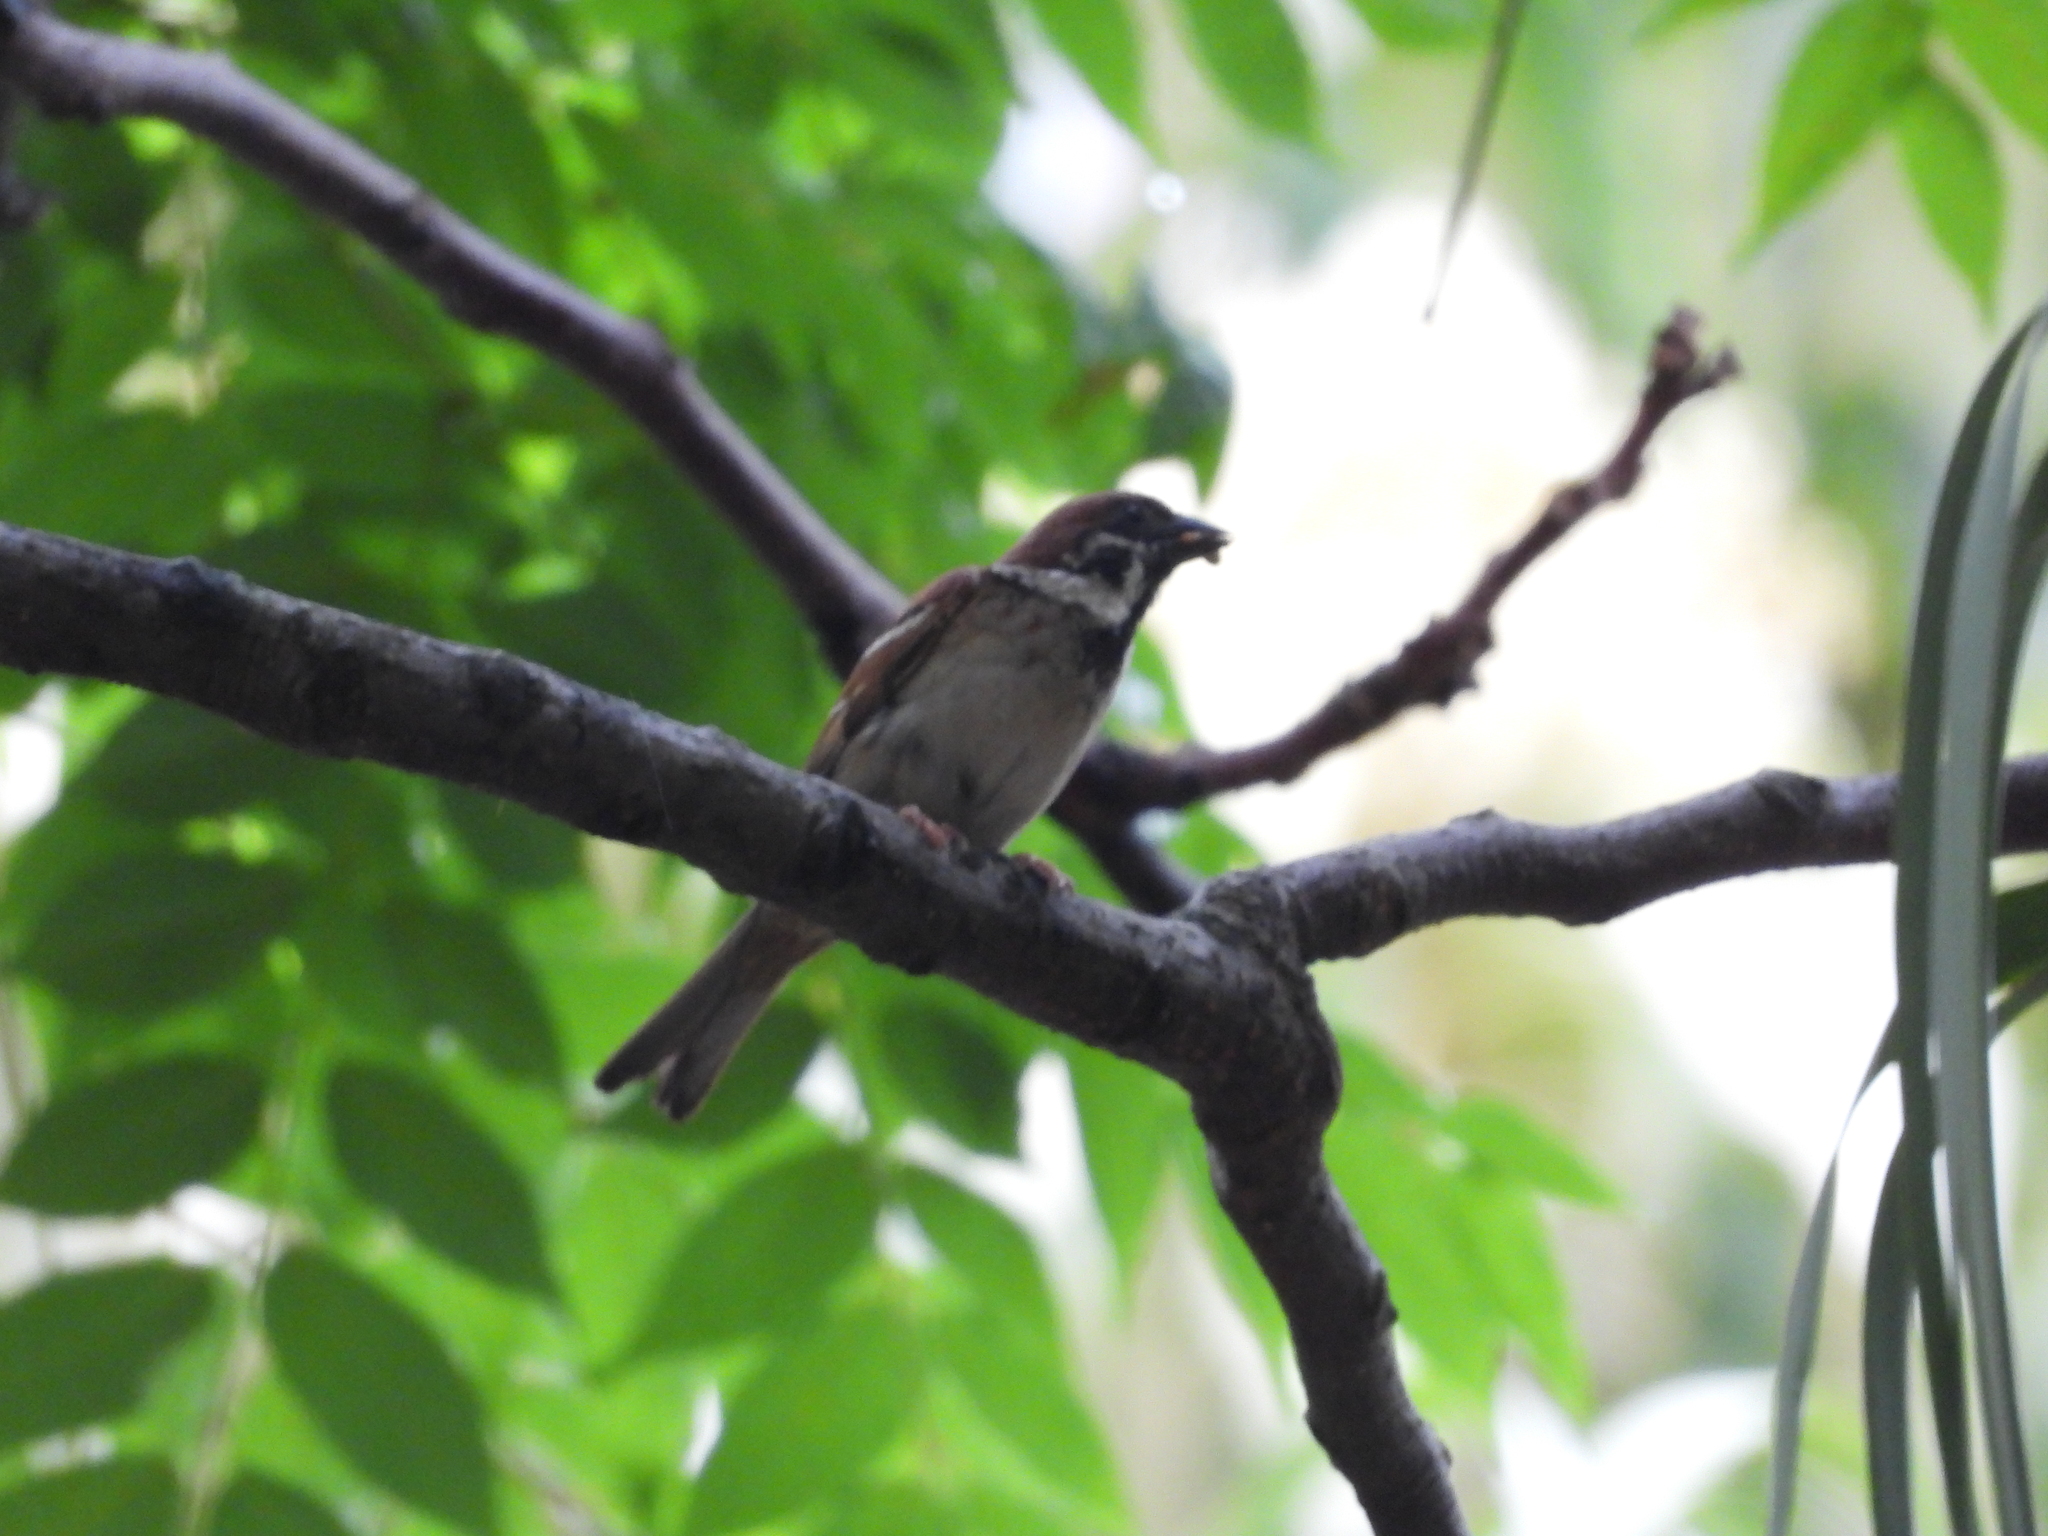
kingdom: Animalia
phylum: Chordata
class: Aves
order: Passeriformes
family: Passeridae
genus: Passer
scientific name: Passer montanus
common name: Eurasian tree sparrow
